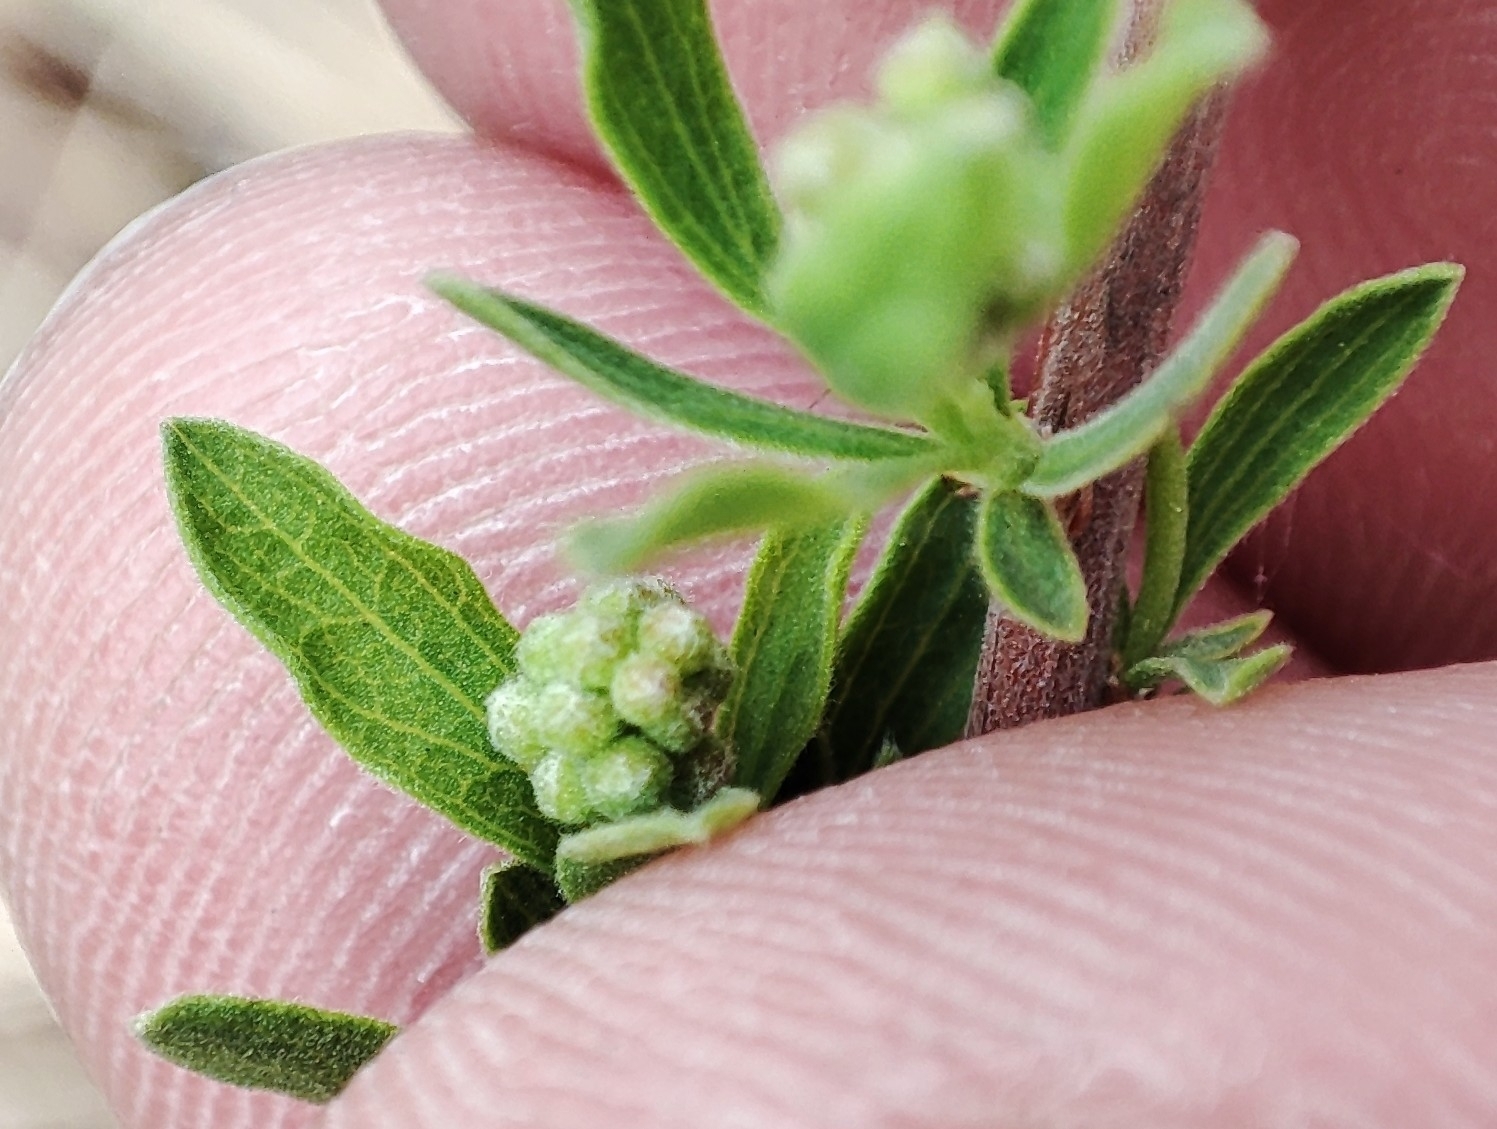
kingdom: Plantae
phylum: Tracheophyta
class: Magnoliopsida
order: Rosales
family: Rosaceae
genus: Spiraea
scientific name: Spiraea crenata
